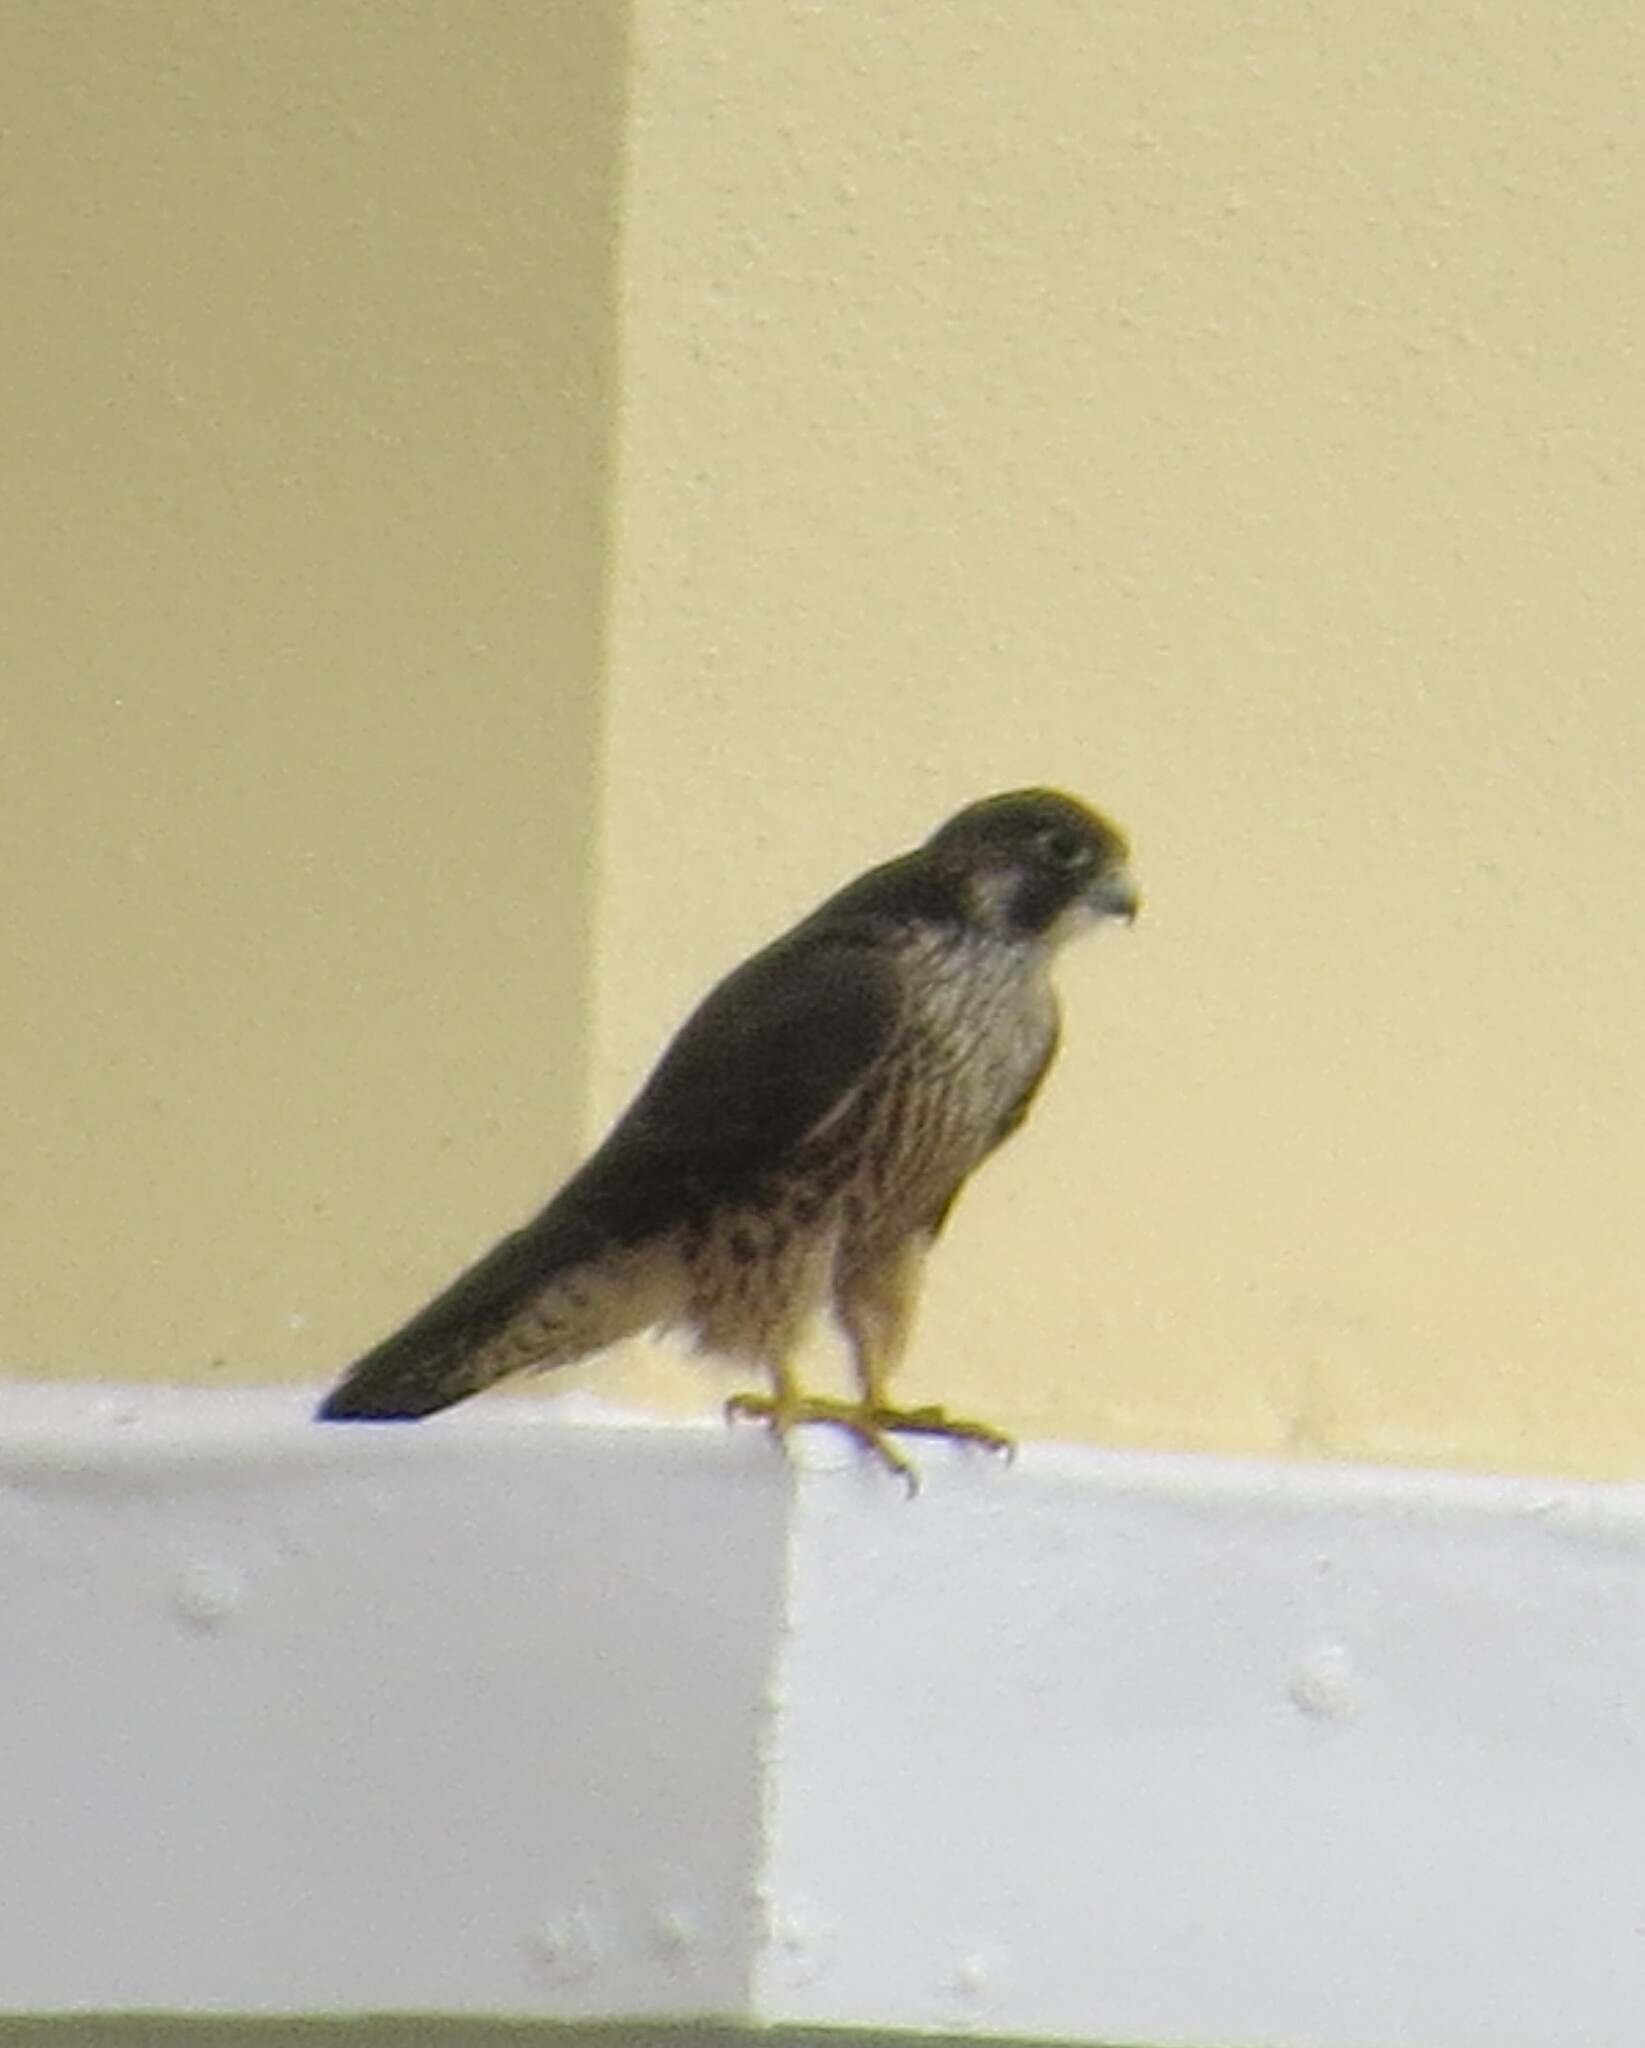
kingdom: Animalia
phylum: Chordata
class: Aves
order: Falconiformes
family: Falconidae
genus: Falco
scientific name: Falco peregrinus
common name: Peregrine falcon
